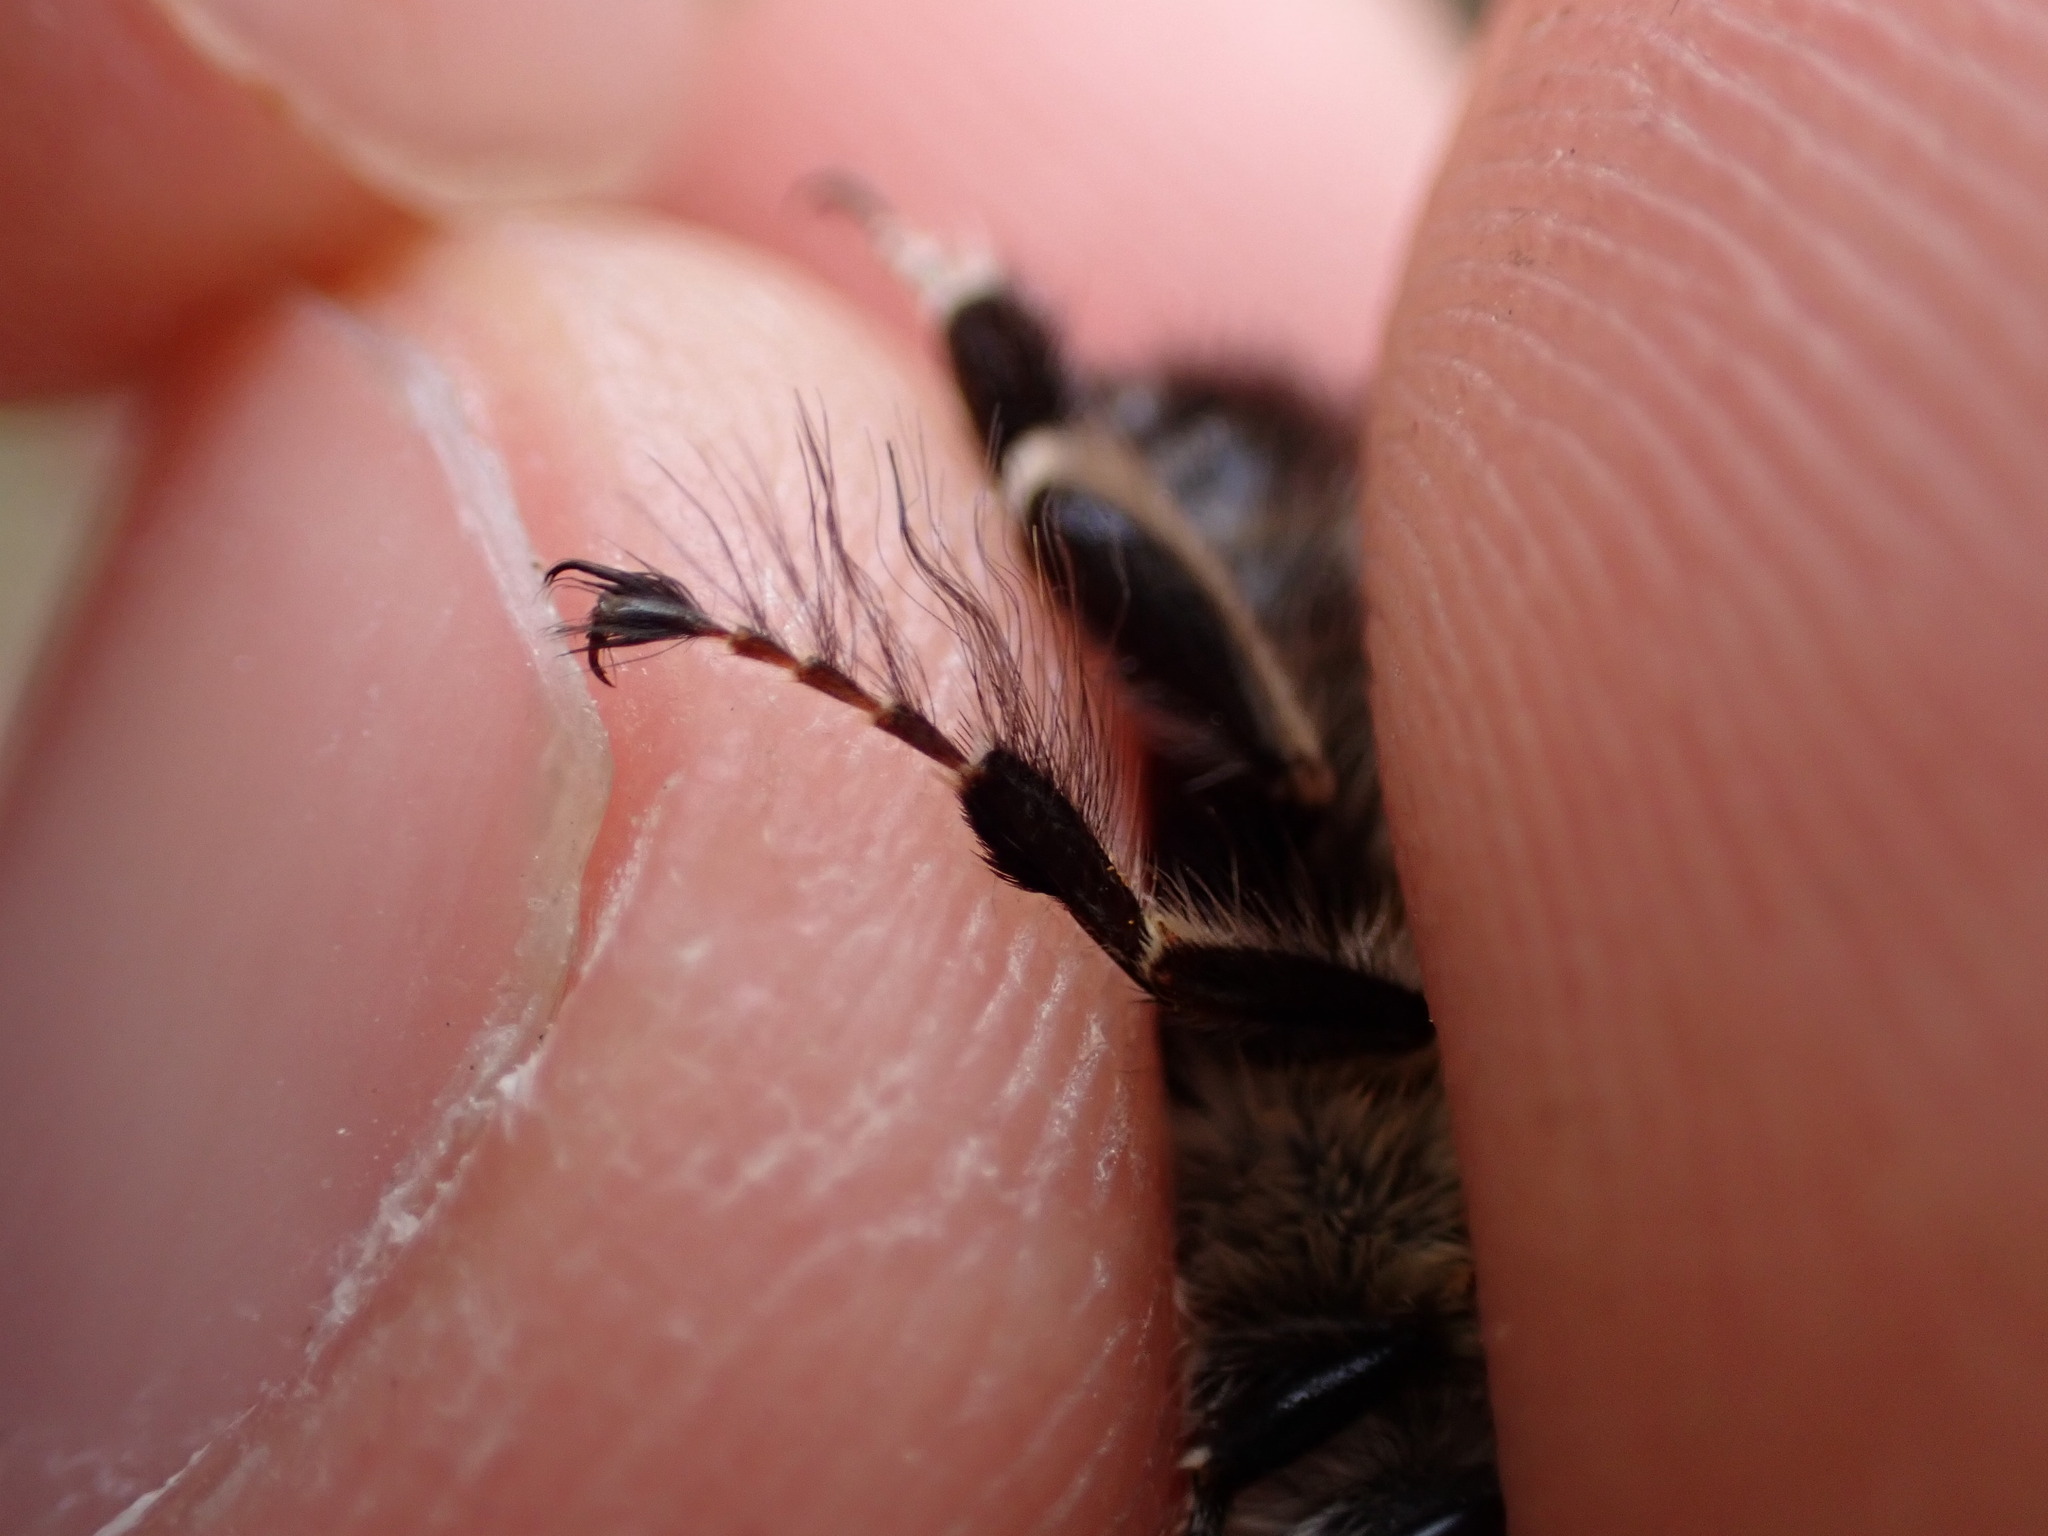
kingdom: Animalia
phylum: Arthropoda
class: Insecta
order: Hymenoptera
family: Apidae
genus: Anthophora
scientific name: Anthophora plumipes
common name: Hairy-footed flower bee
